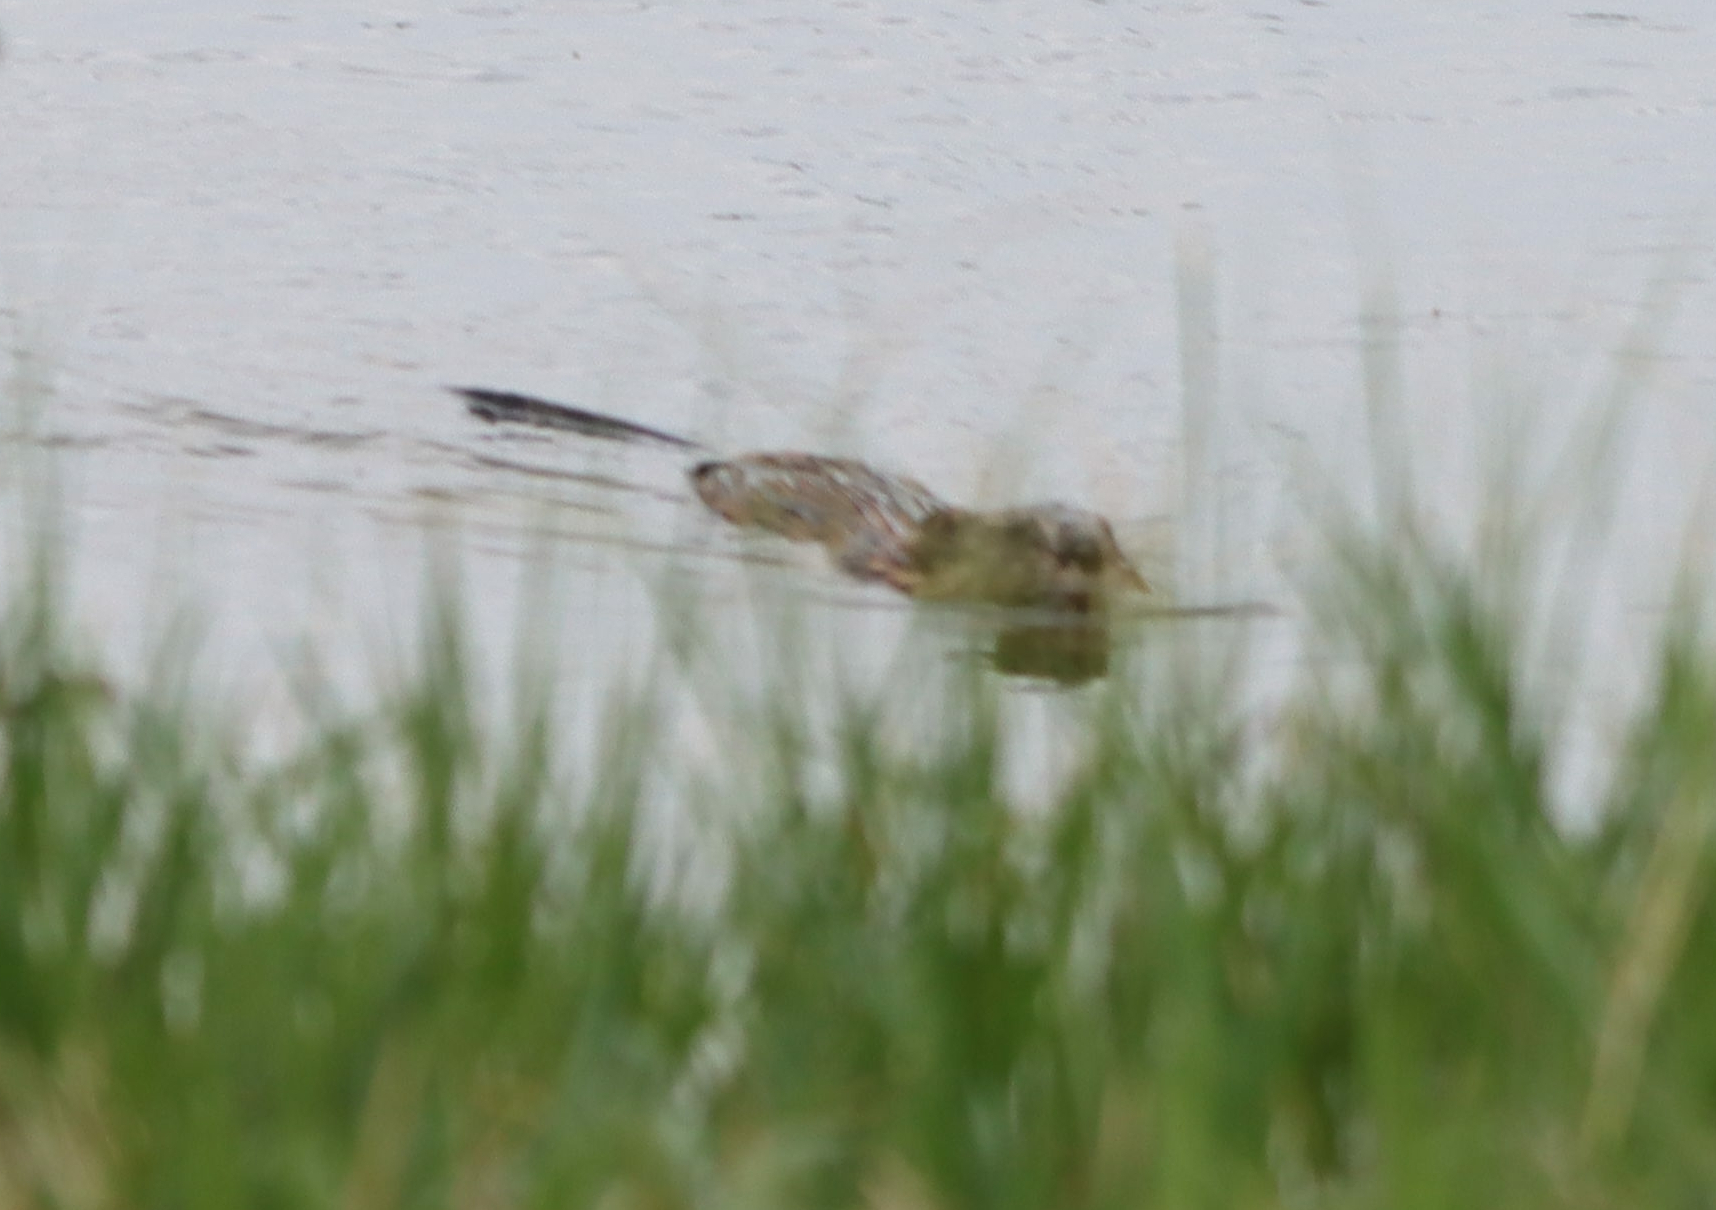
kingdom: Animalia
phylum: Chordata
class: Mammalia
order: Rodentia
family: Cricetidae
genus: Ondatra
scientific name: Ondatra zibethicus
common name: Muskrat
